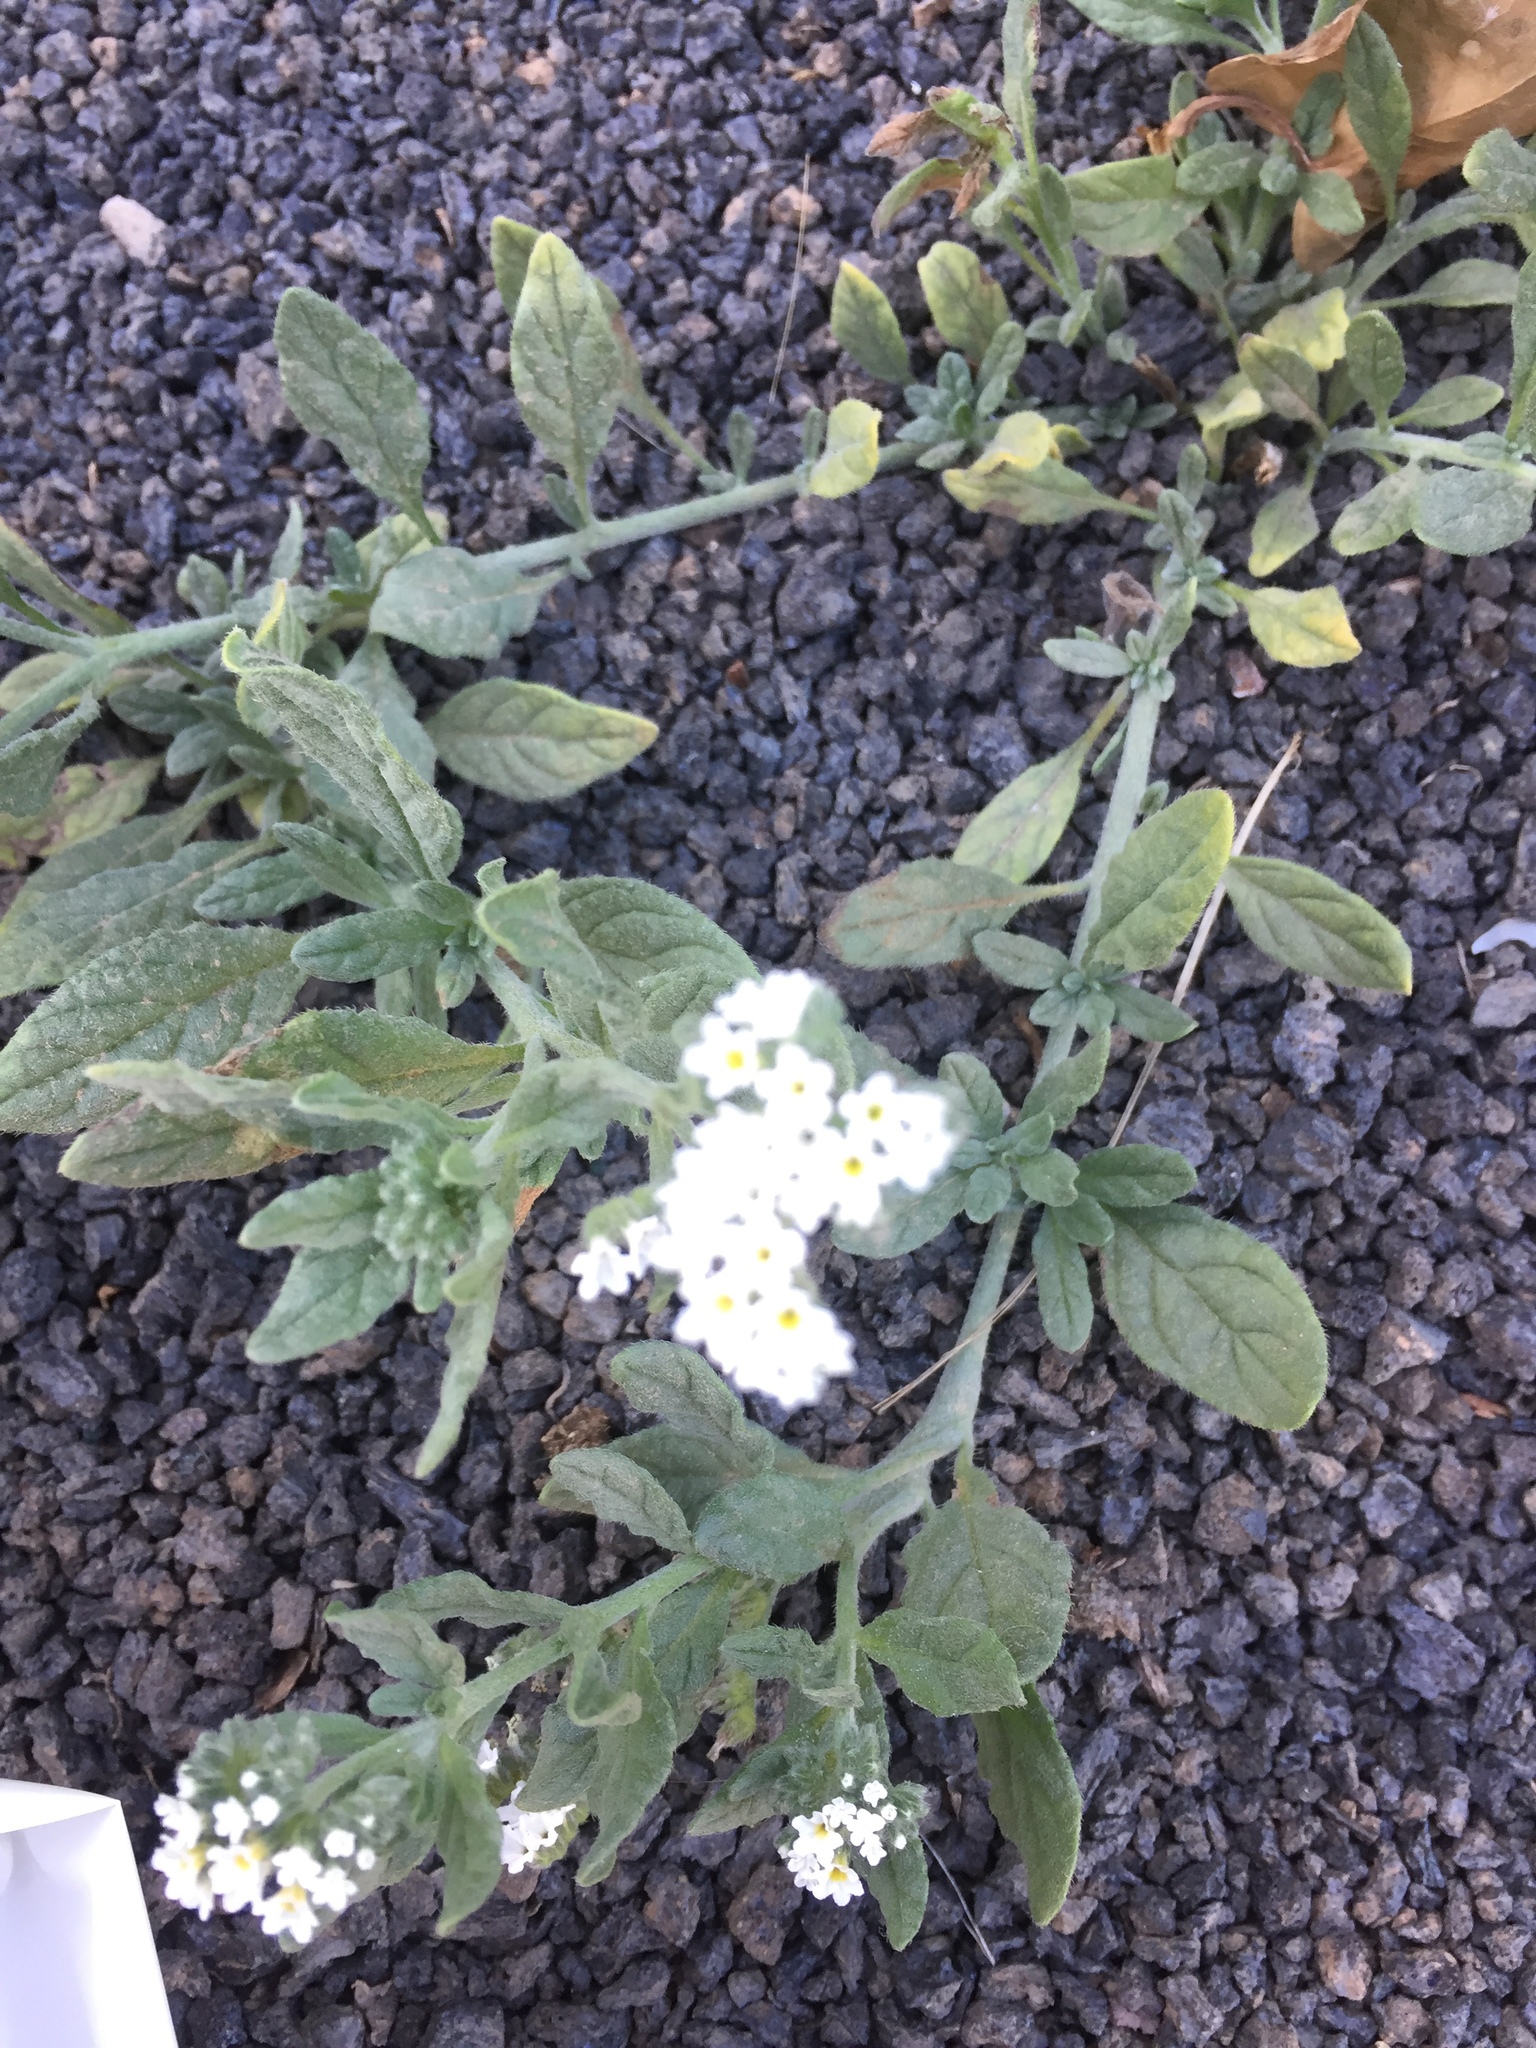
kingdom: Plantae
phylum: Tracheophyta
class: Magnoliopsida
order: Boraginales
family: Heliotropiaceae
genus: Heliotropium
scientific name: Heliotropium europaeum
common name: European heliotrope
